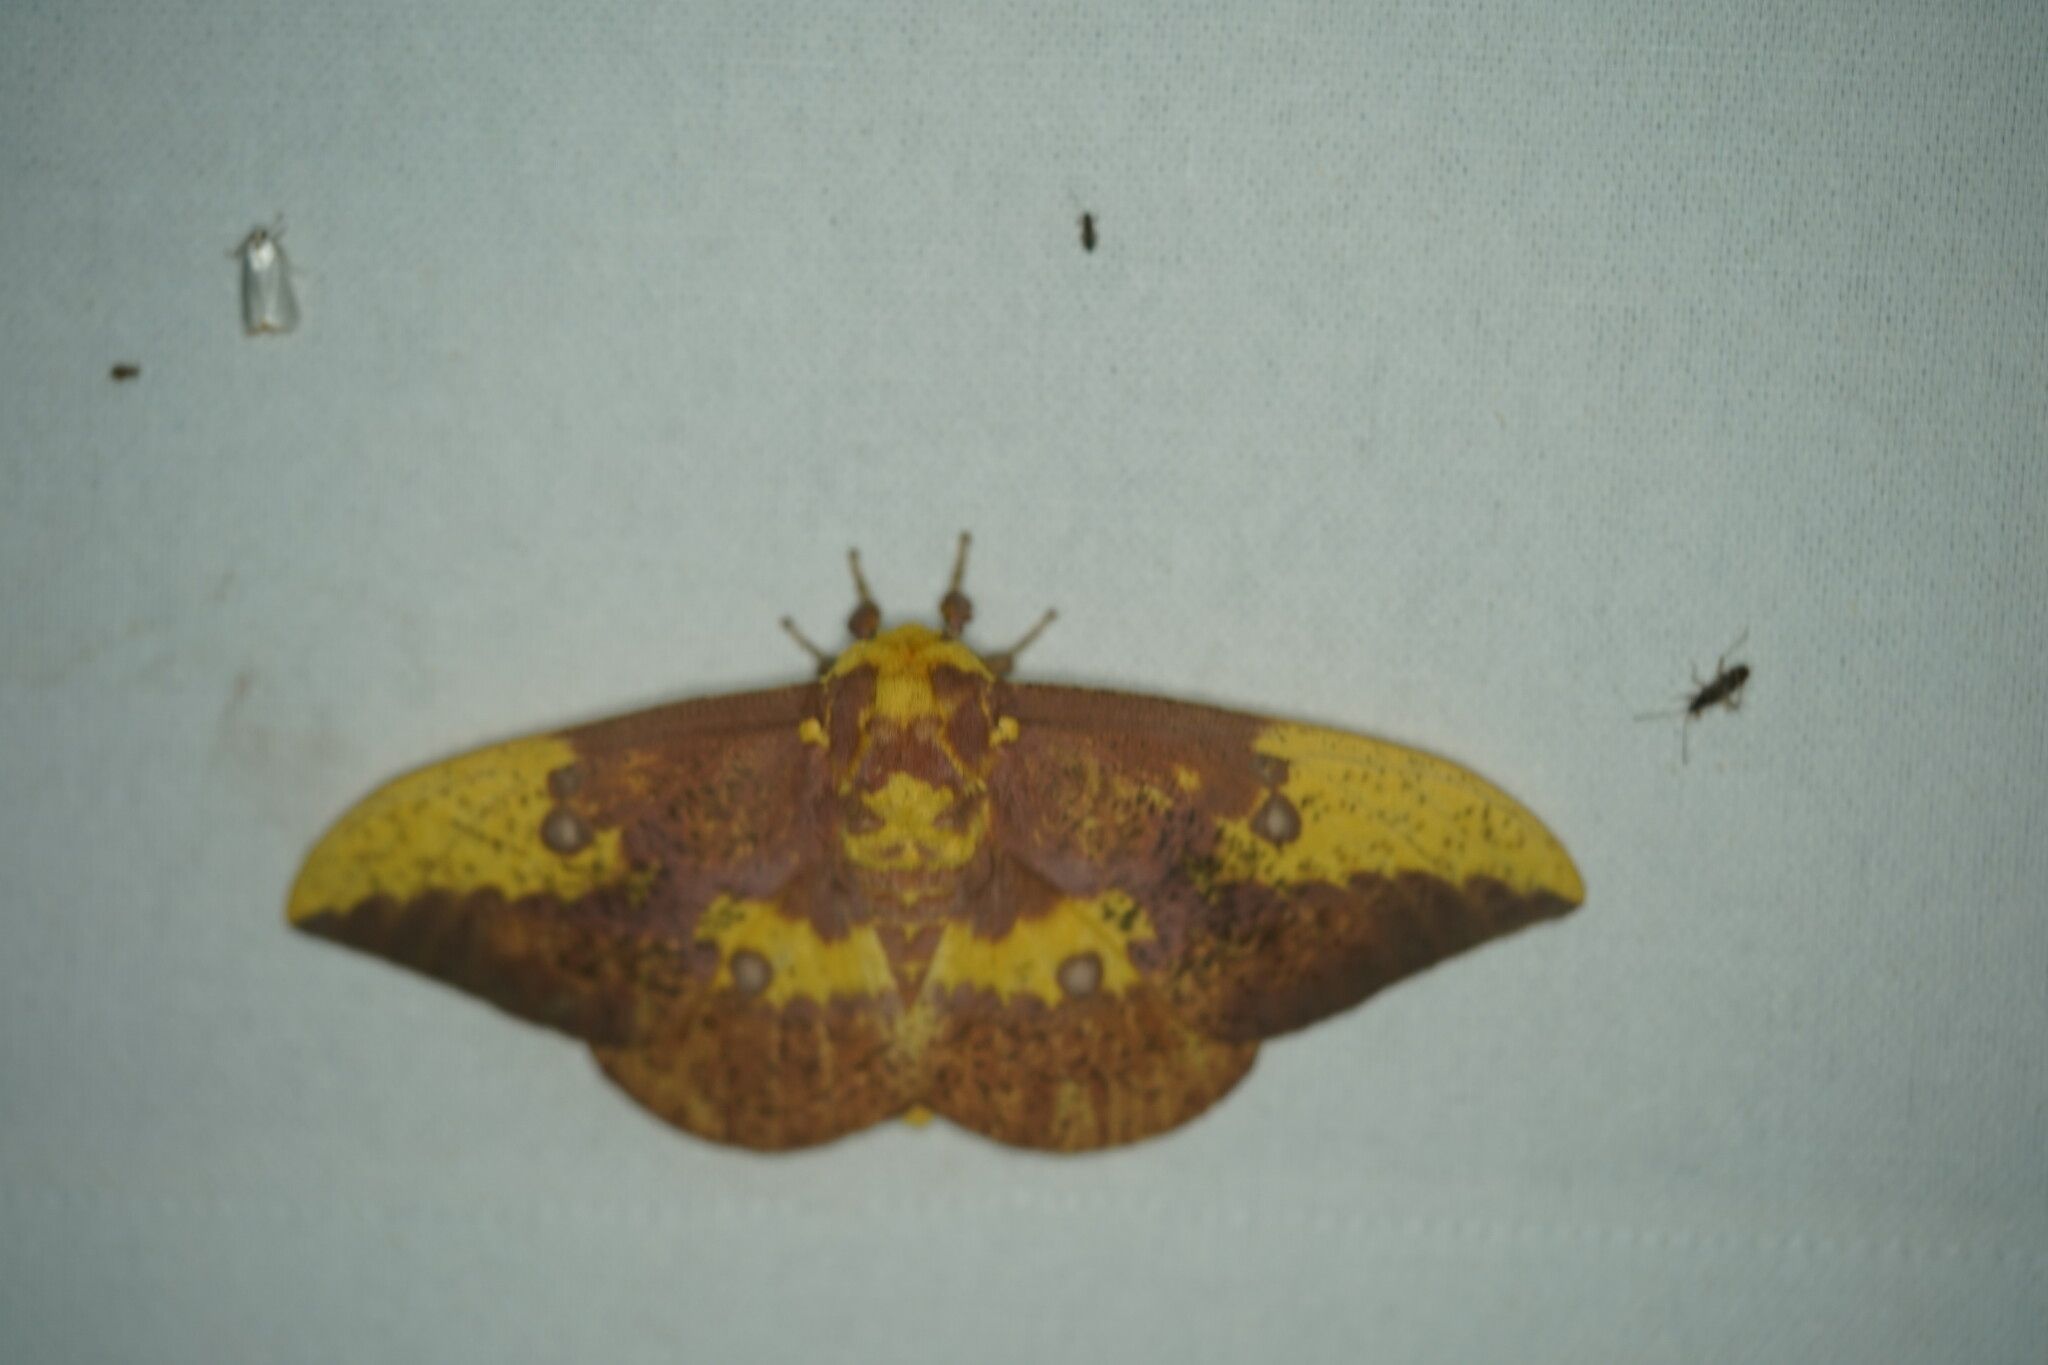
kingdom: Animalia
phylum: Arthropoda
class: Insecta
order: Lepidoptera
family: Saturniidae
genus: Eacles
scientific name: Eacles imperialis
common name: Imperial moth
